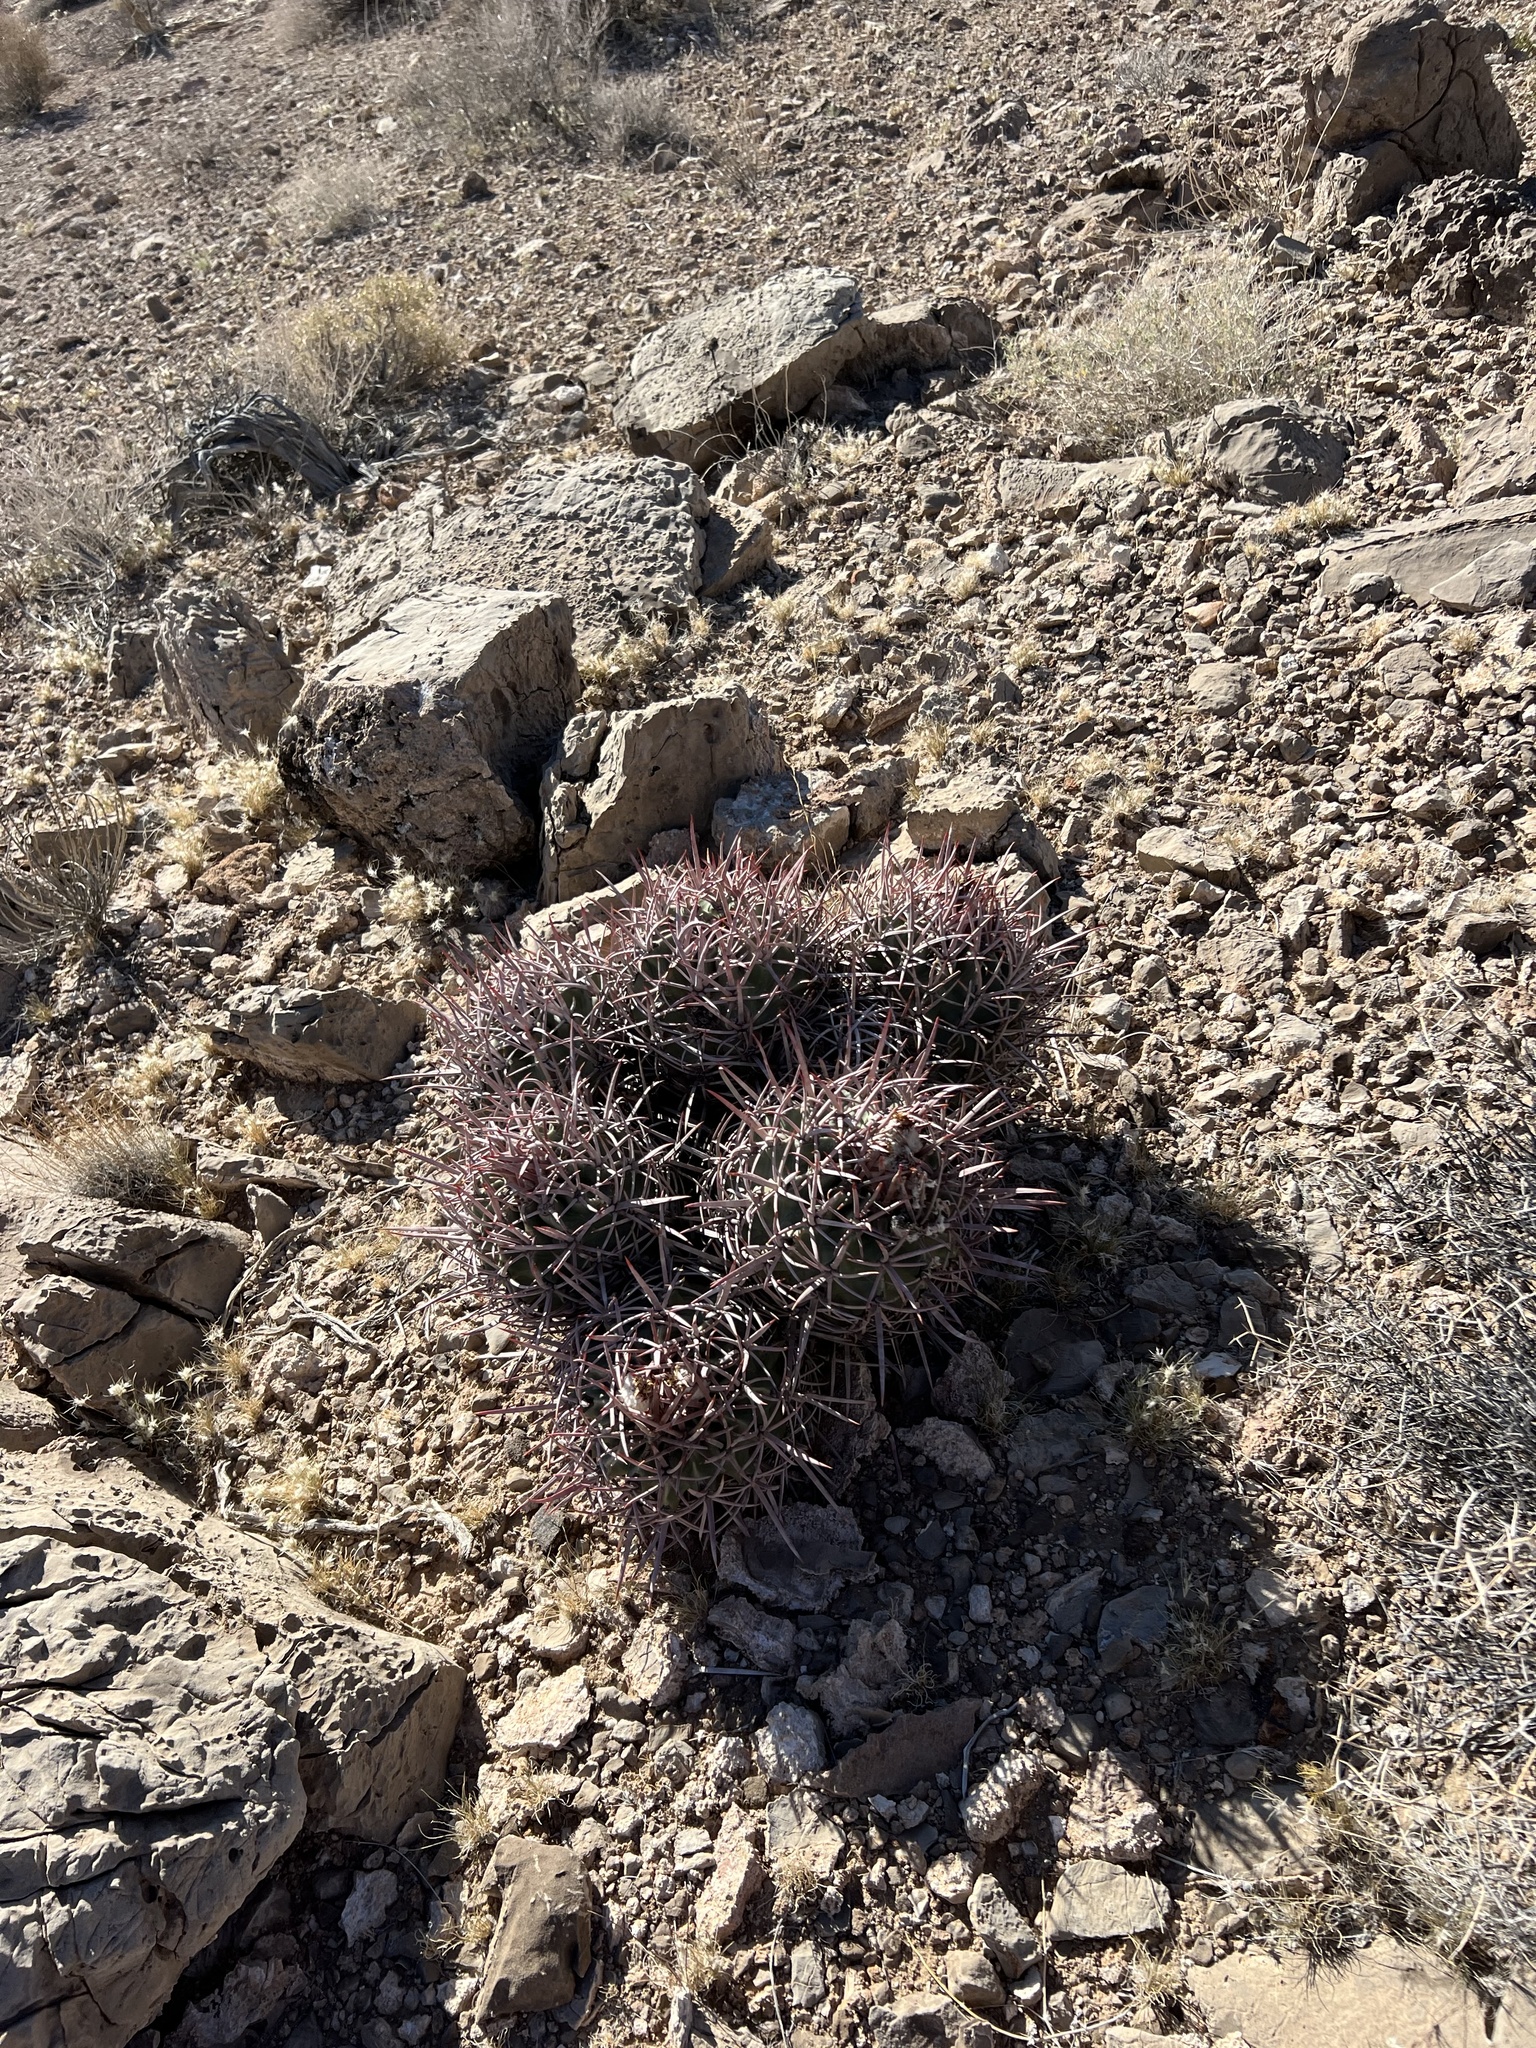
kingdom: Plantae
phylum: Tracheophyta
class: Magnoliopsida
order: Caryophyllales
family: Cactaceae
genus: Echinocactus
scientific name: Echinocactus polycephalus
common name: Cottontop cactus
